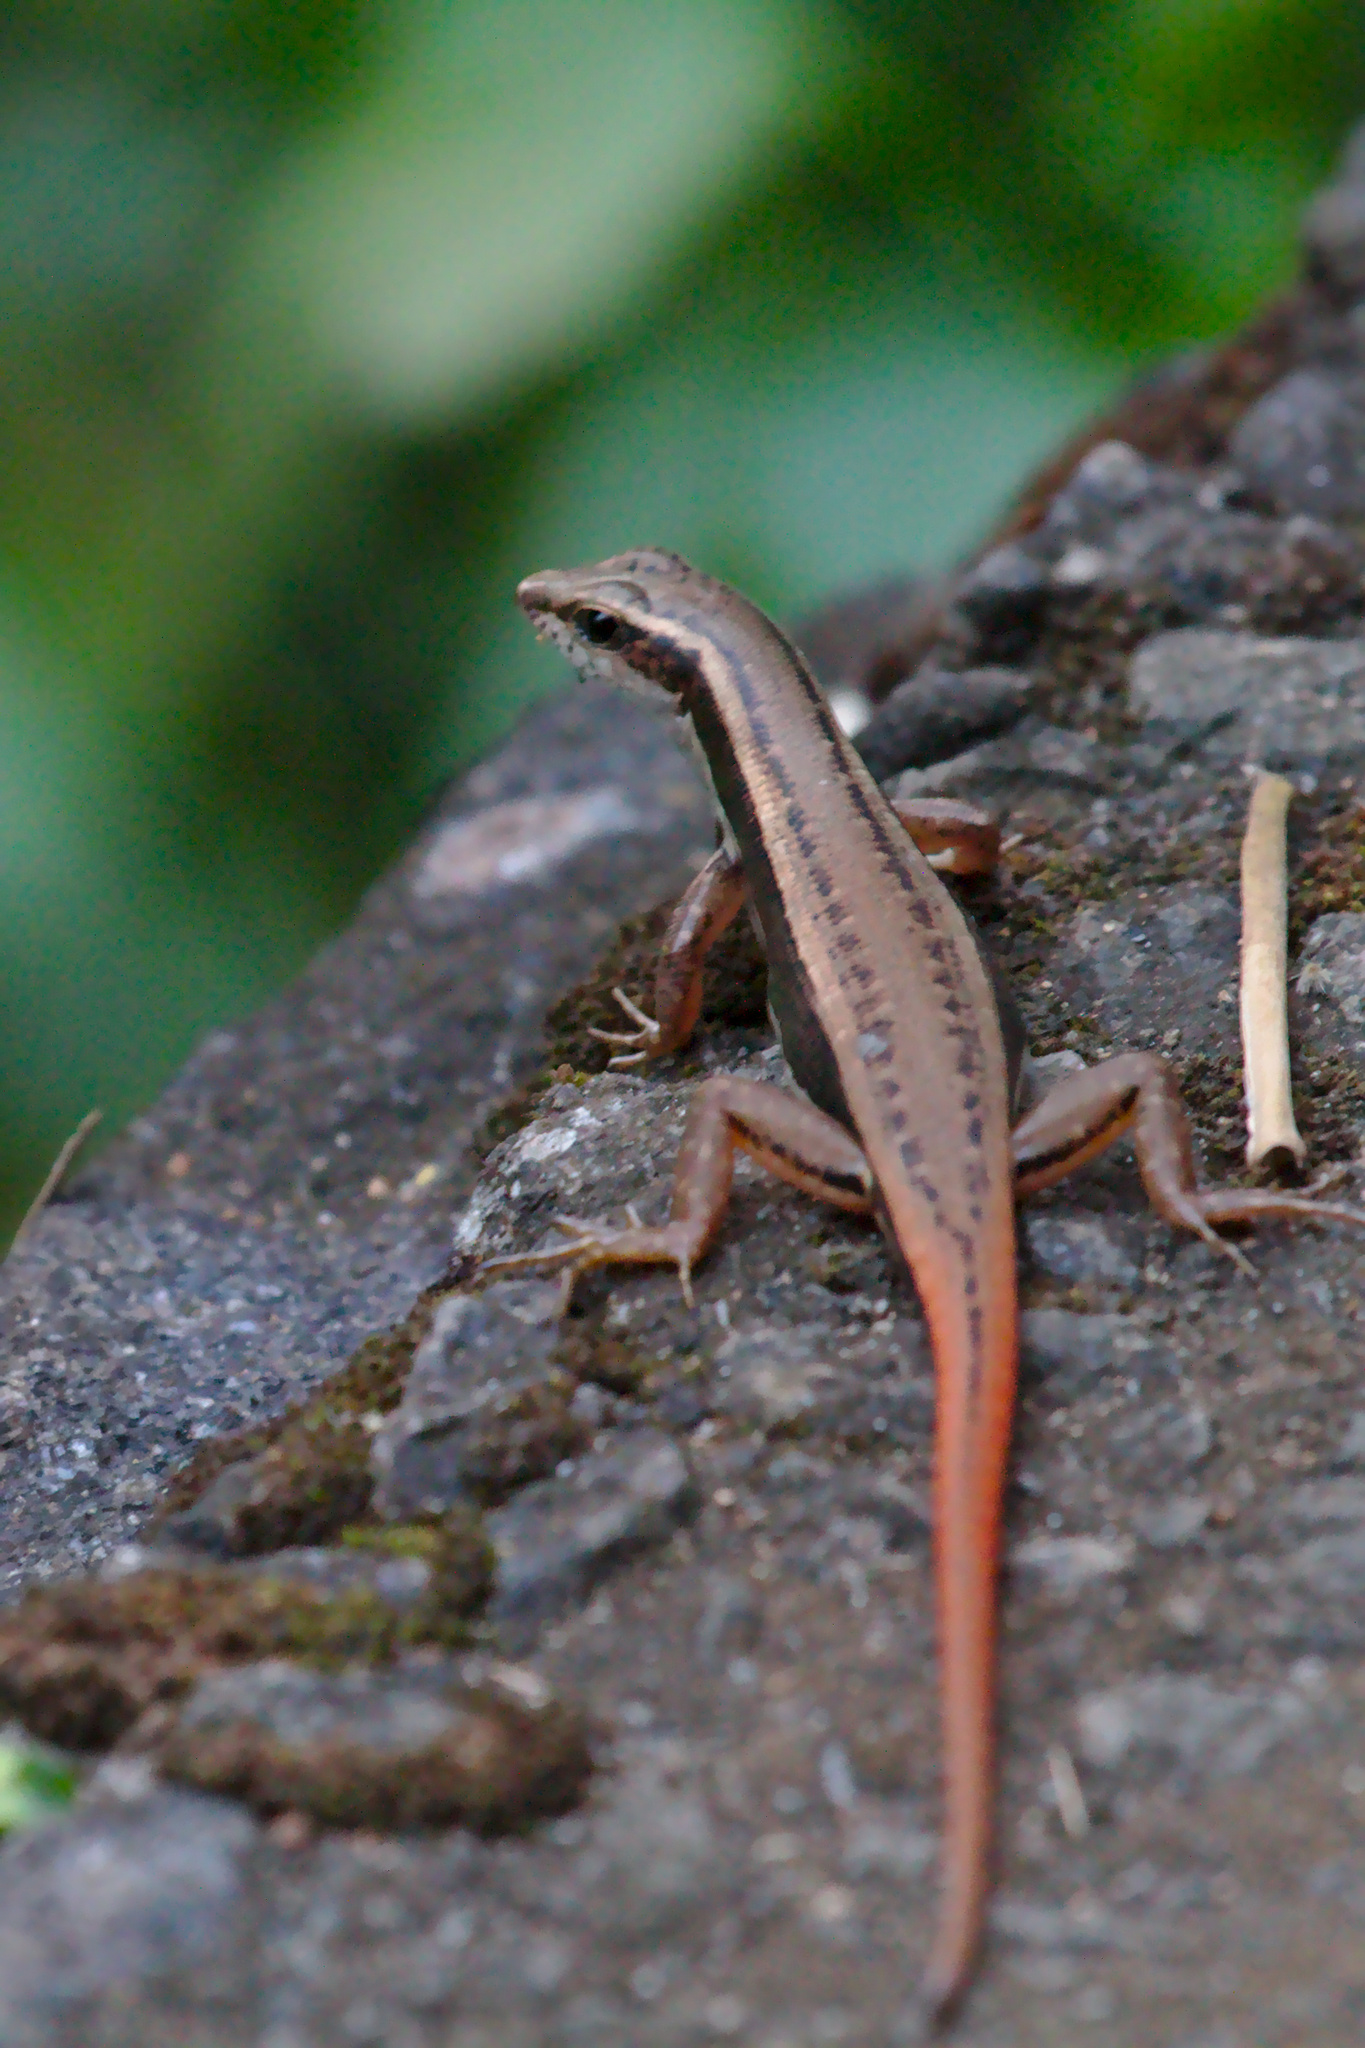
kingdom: Animalia
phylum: Chordata
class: Squamata
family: Scincidae
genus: Sphenomorphus
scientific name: Sphenomorphus dussumieri
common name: Dussumier's forest skink
